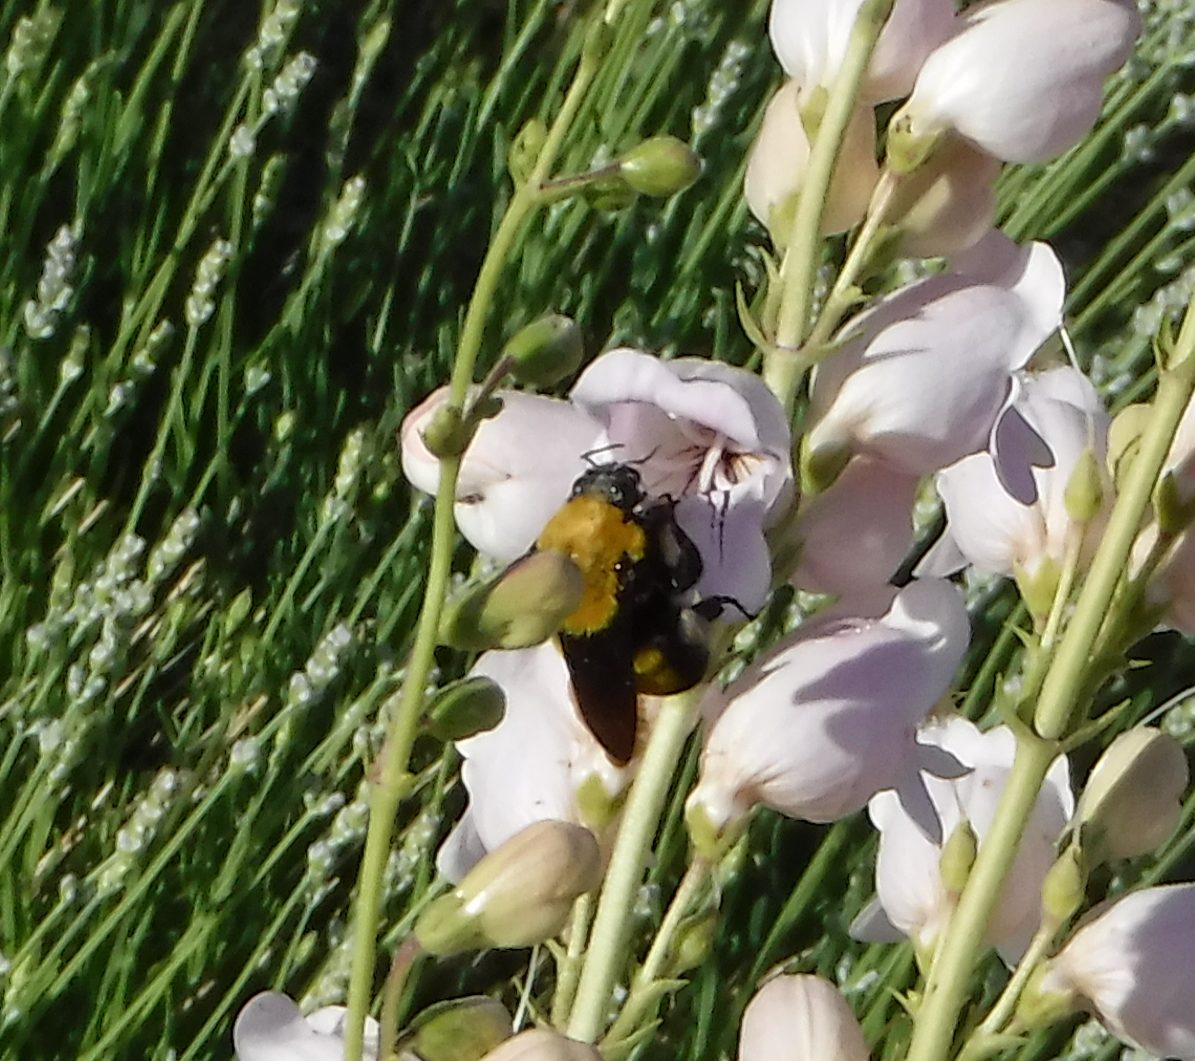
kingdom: Animalia
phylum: Arthropoda
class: Insecta
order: Hymenoptera
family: Apidae
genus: Bombus
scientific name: Bombus morrisoni
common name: Morrison bumble bee
